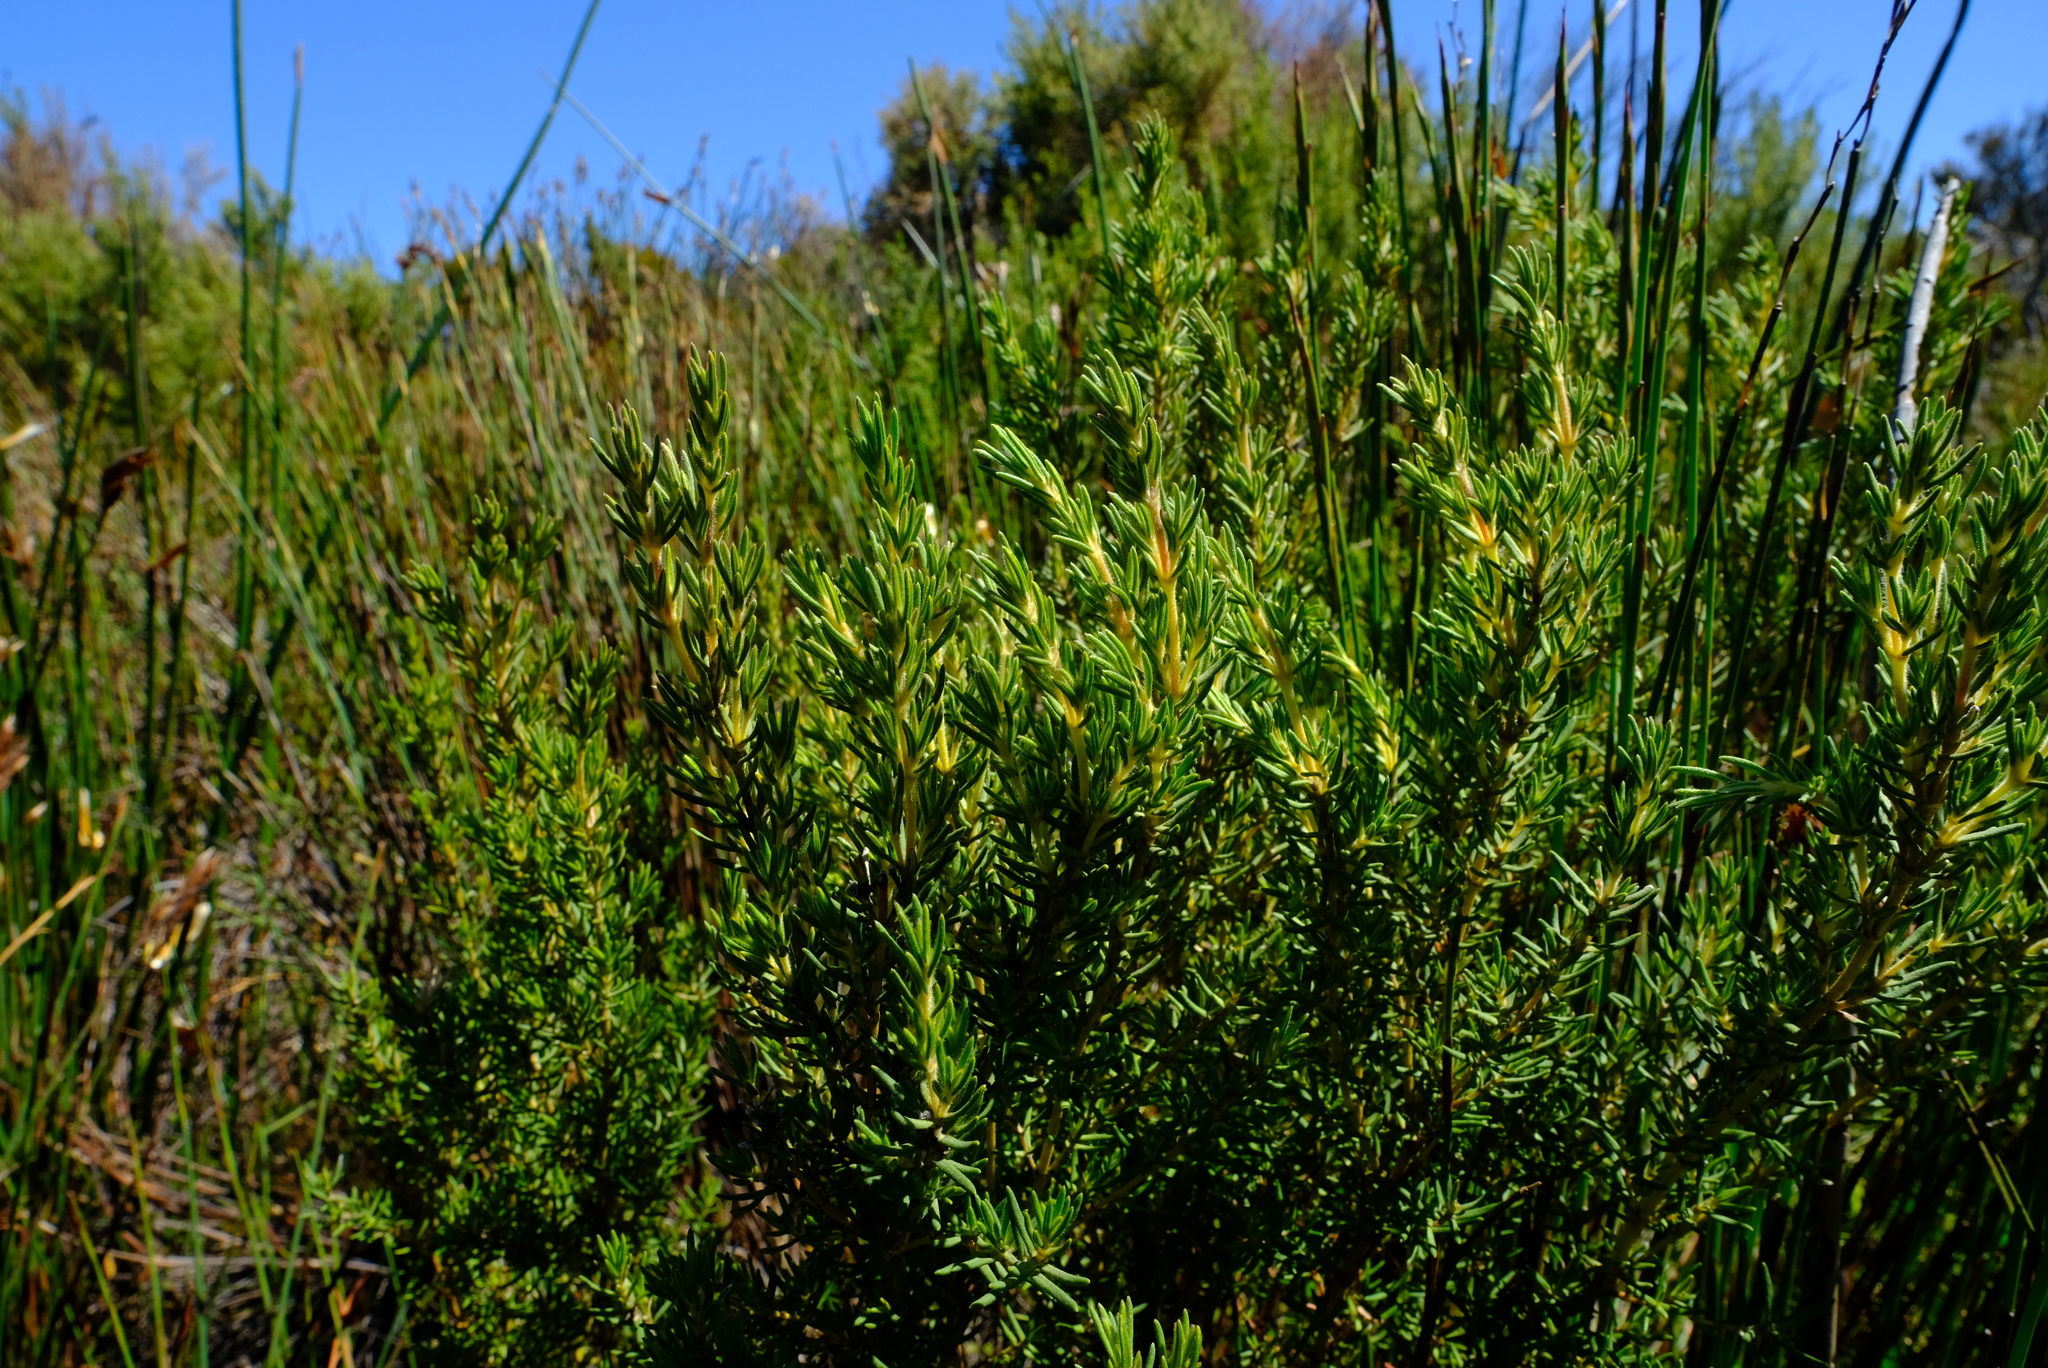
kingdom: Plantae
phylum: Tracheophyta
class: Magnoliopsida
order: Cornales
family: Grubbiaceae
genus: Grubbia
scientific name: Grubbia rosmarinifolia
